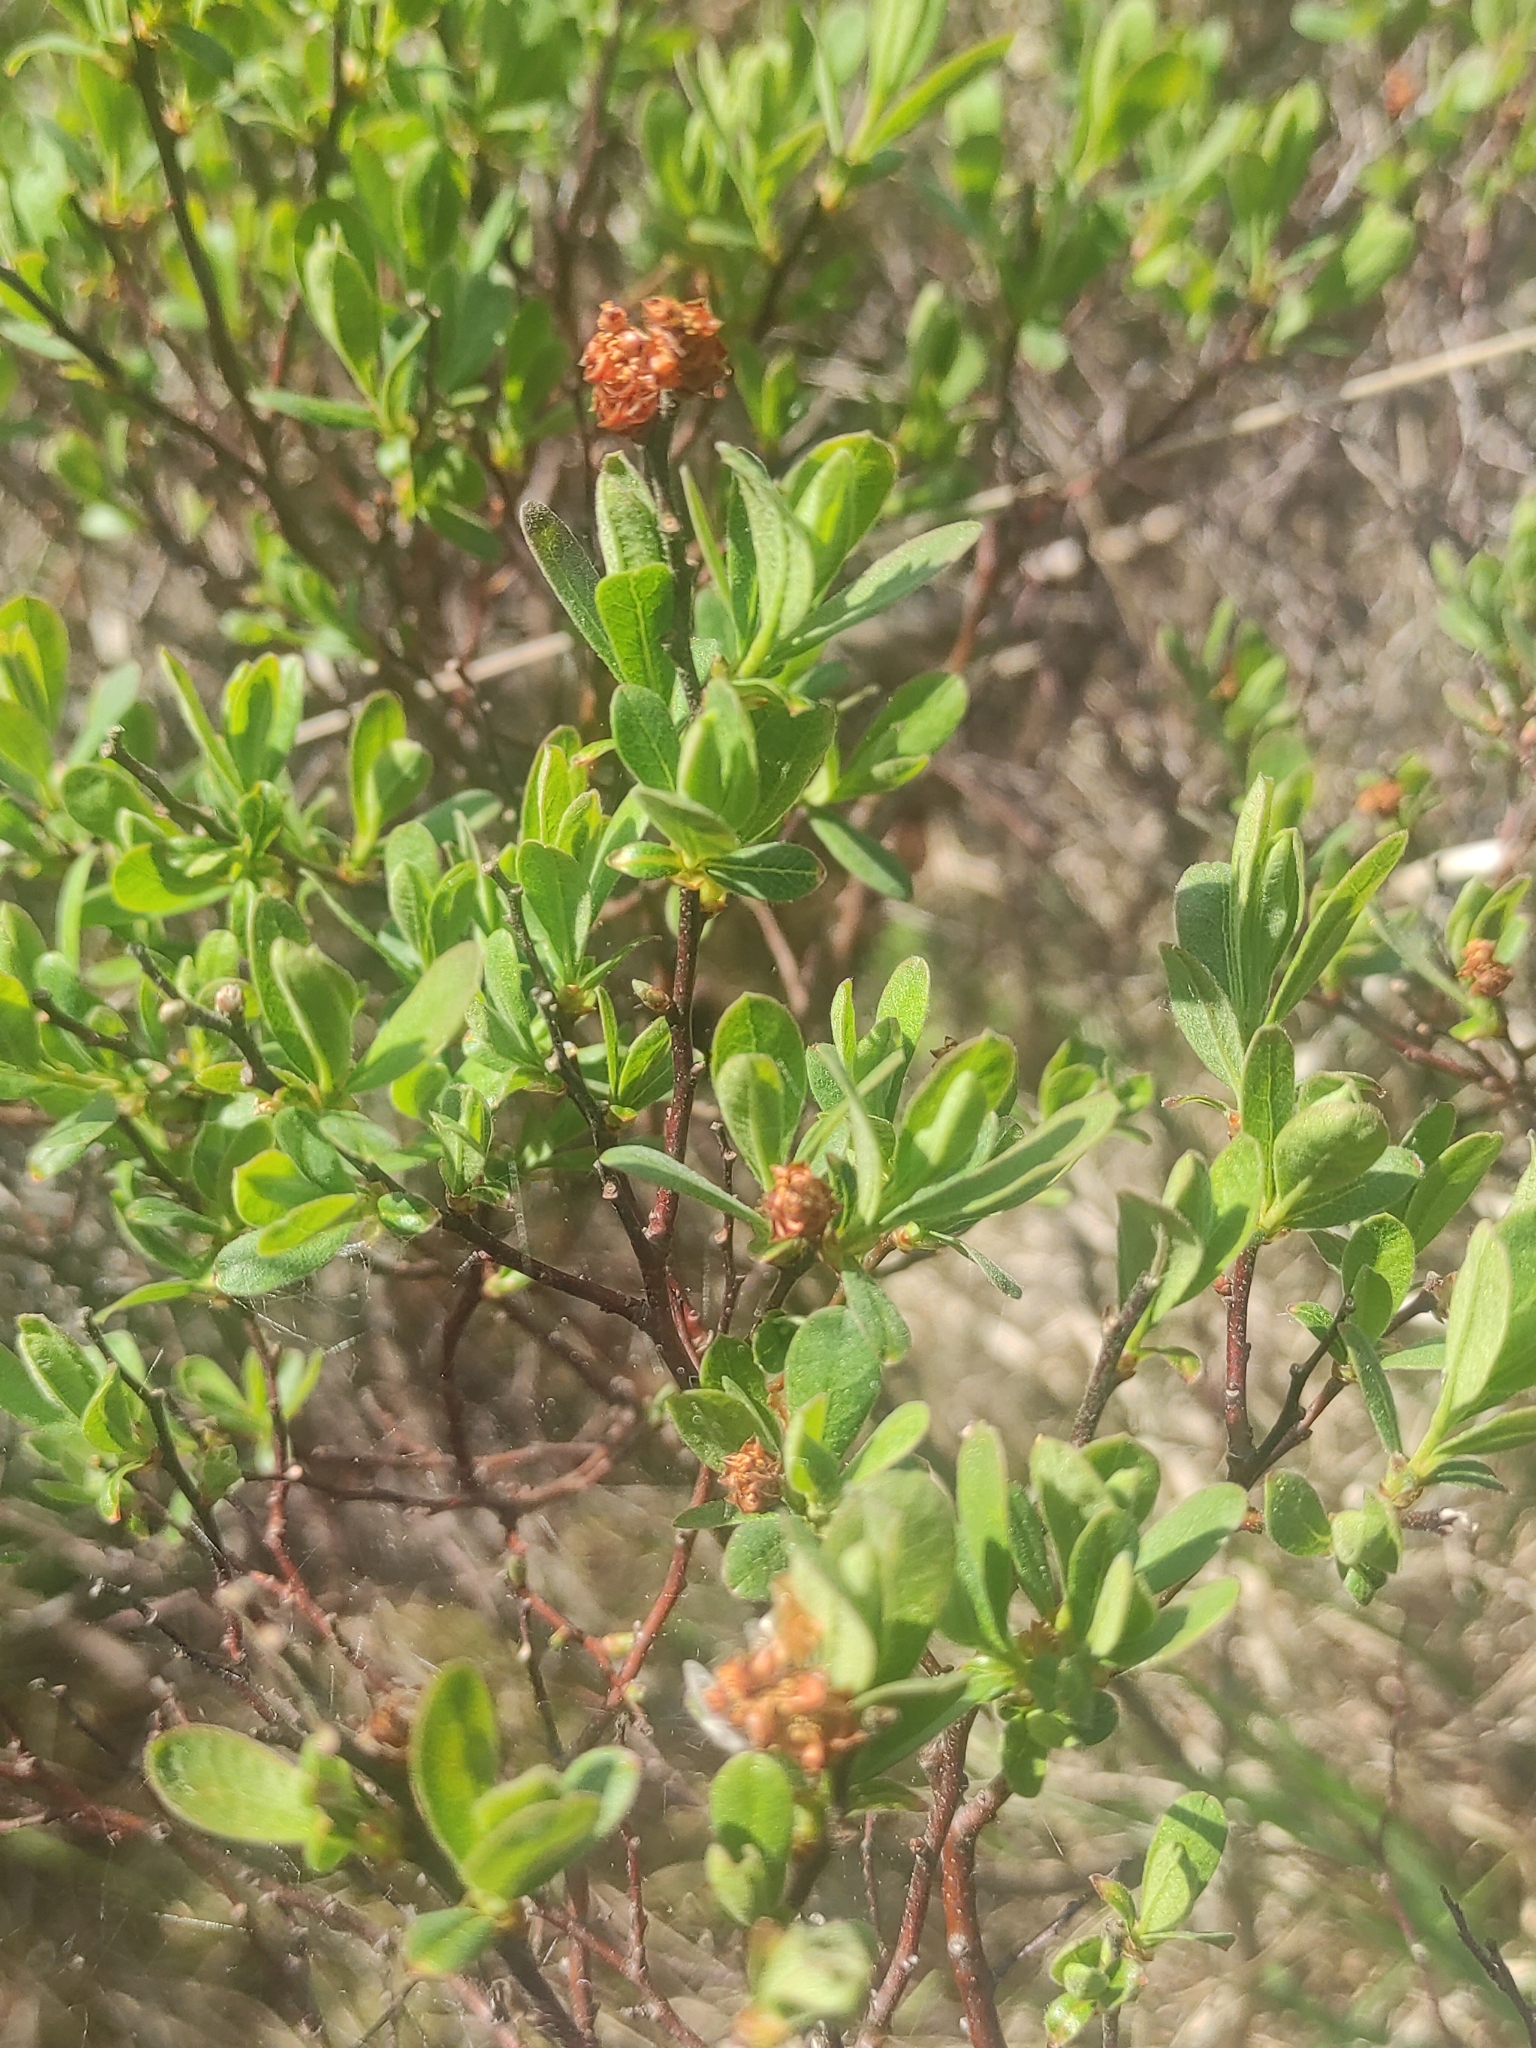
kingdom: Plantae
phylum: Tracheophyta
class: Magnoliopsida
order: Fagales
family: Myricaceae
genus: Myrica
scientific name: Myrica gale
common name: Sweet gale
